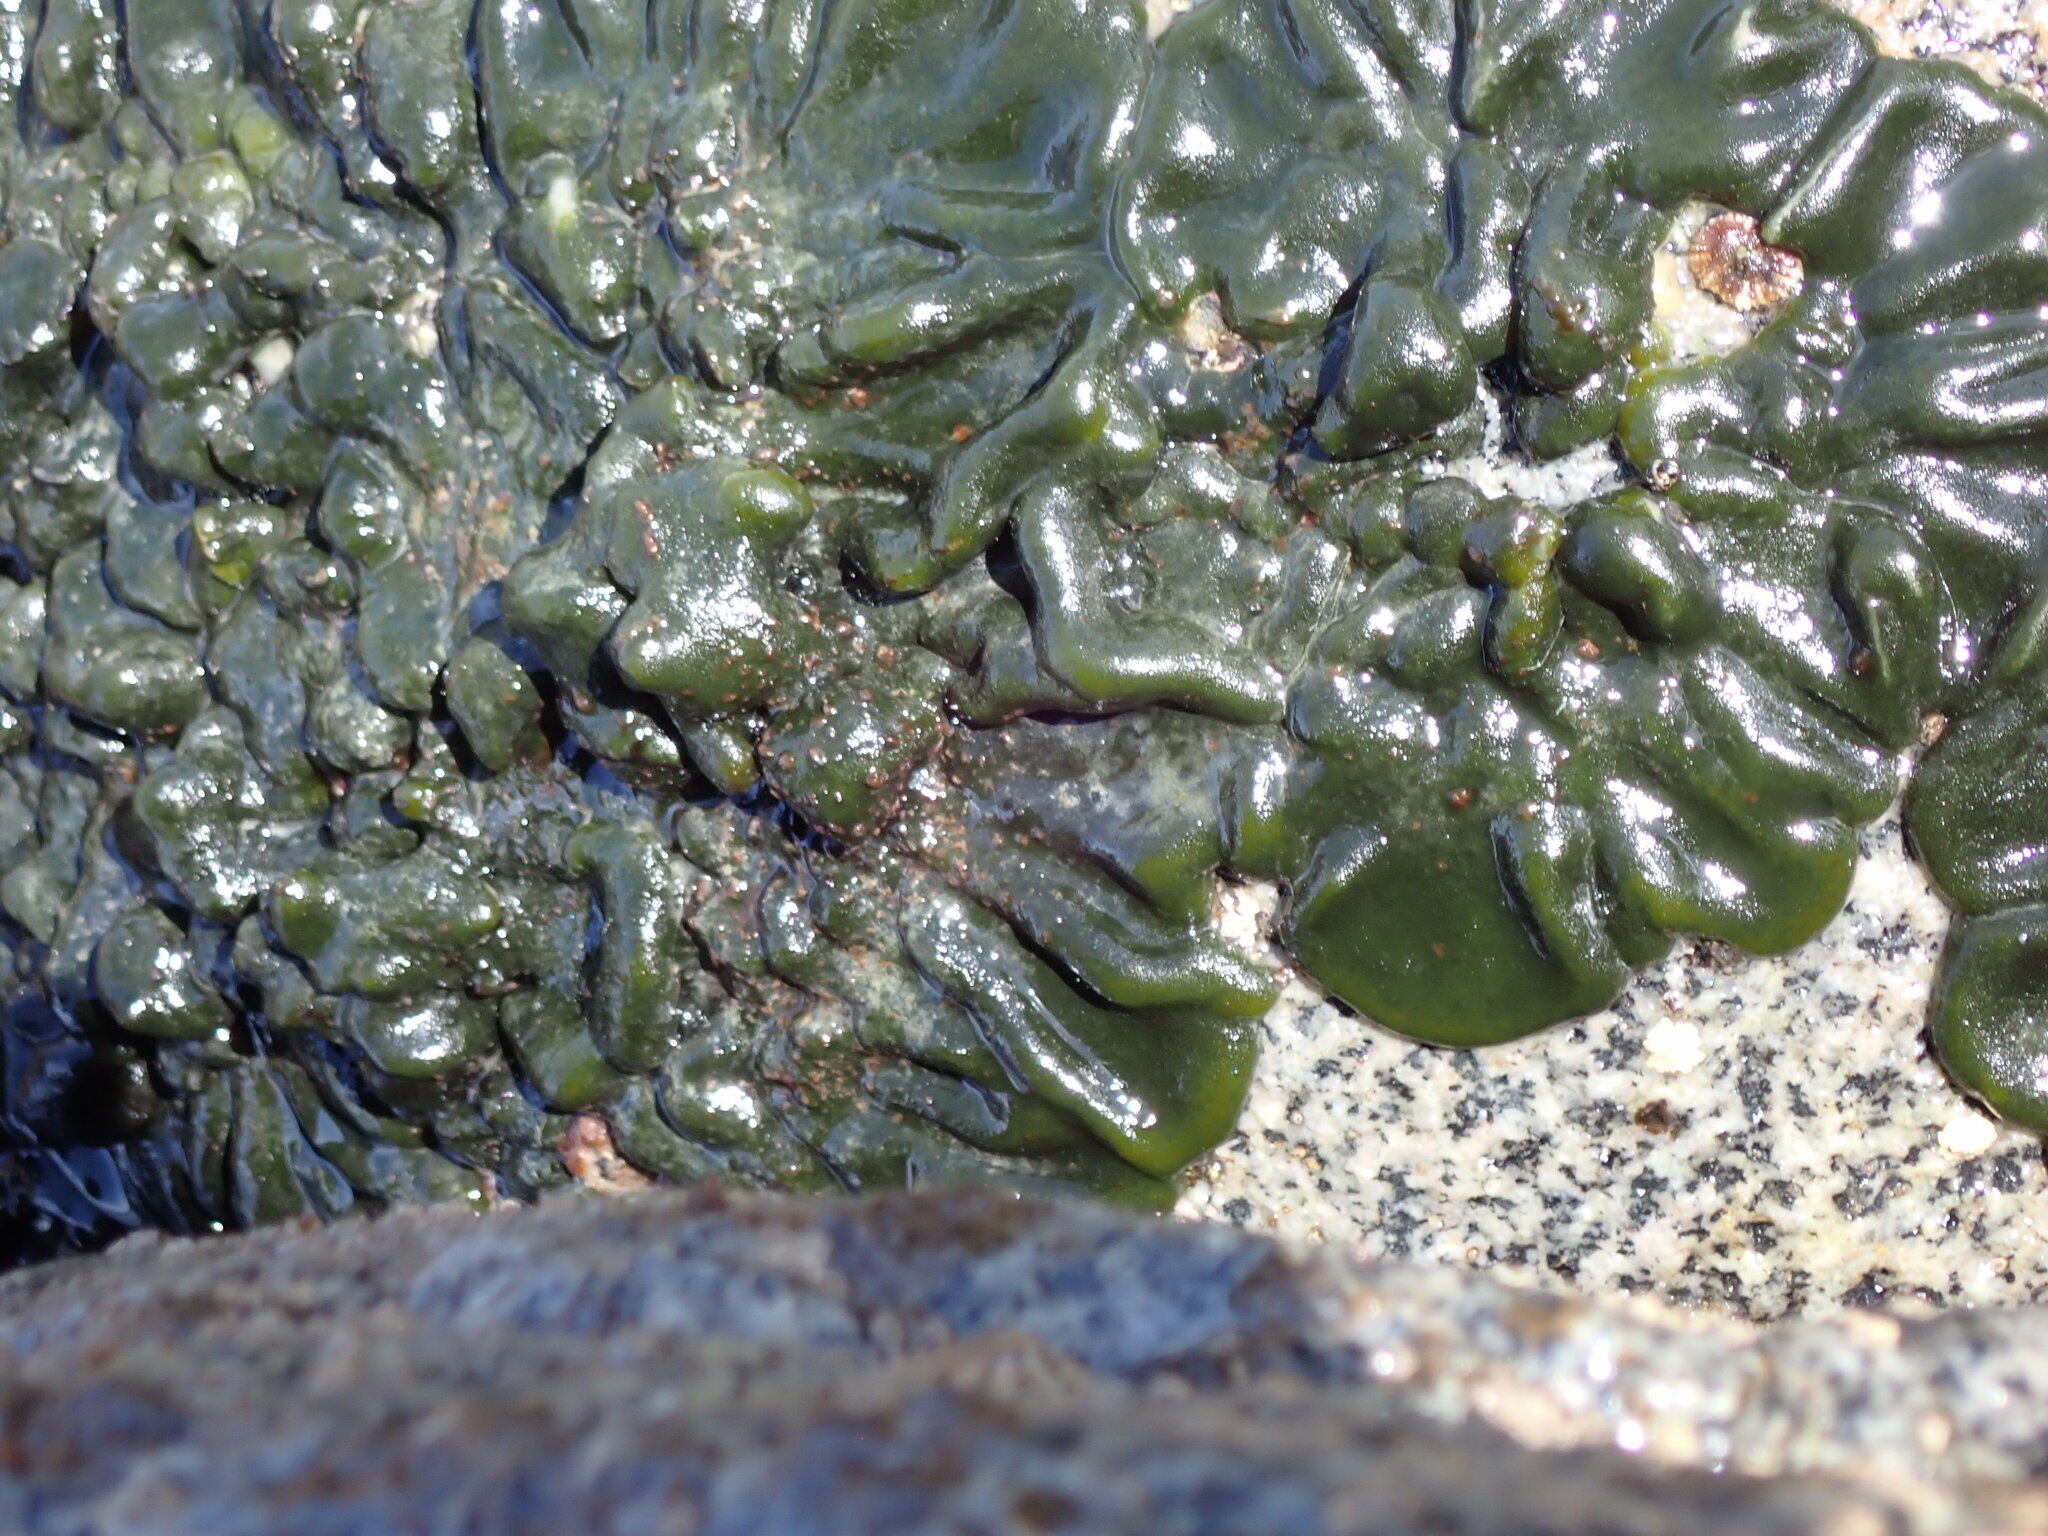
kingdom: Plantae
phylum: Chlorophyta
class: Ulvophyceae
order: Bryopsidales
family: Codiaceae
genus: Codium
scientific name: Codium convolutum
